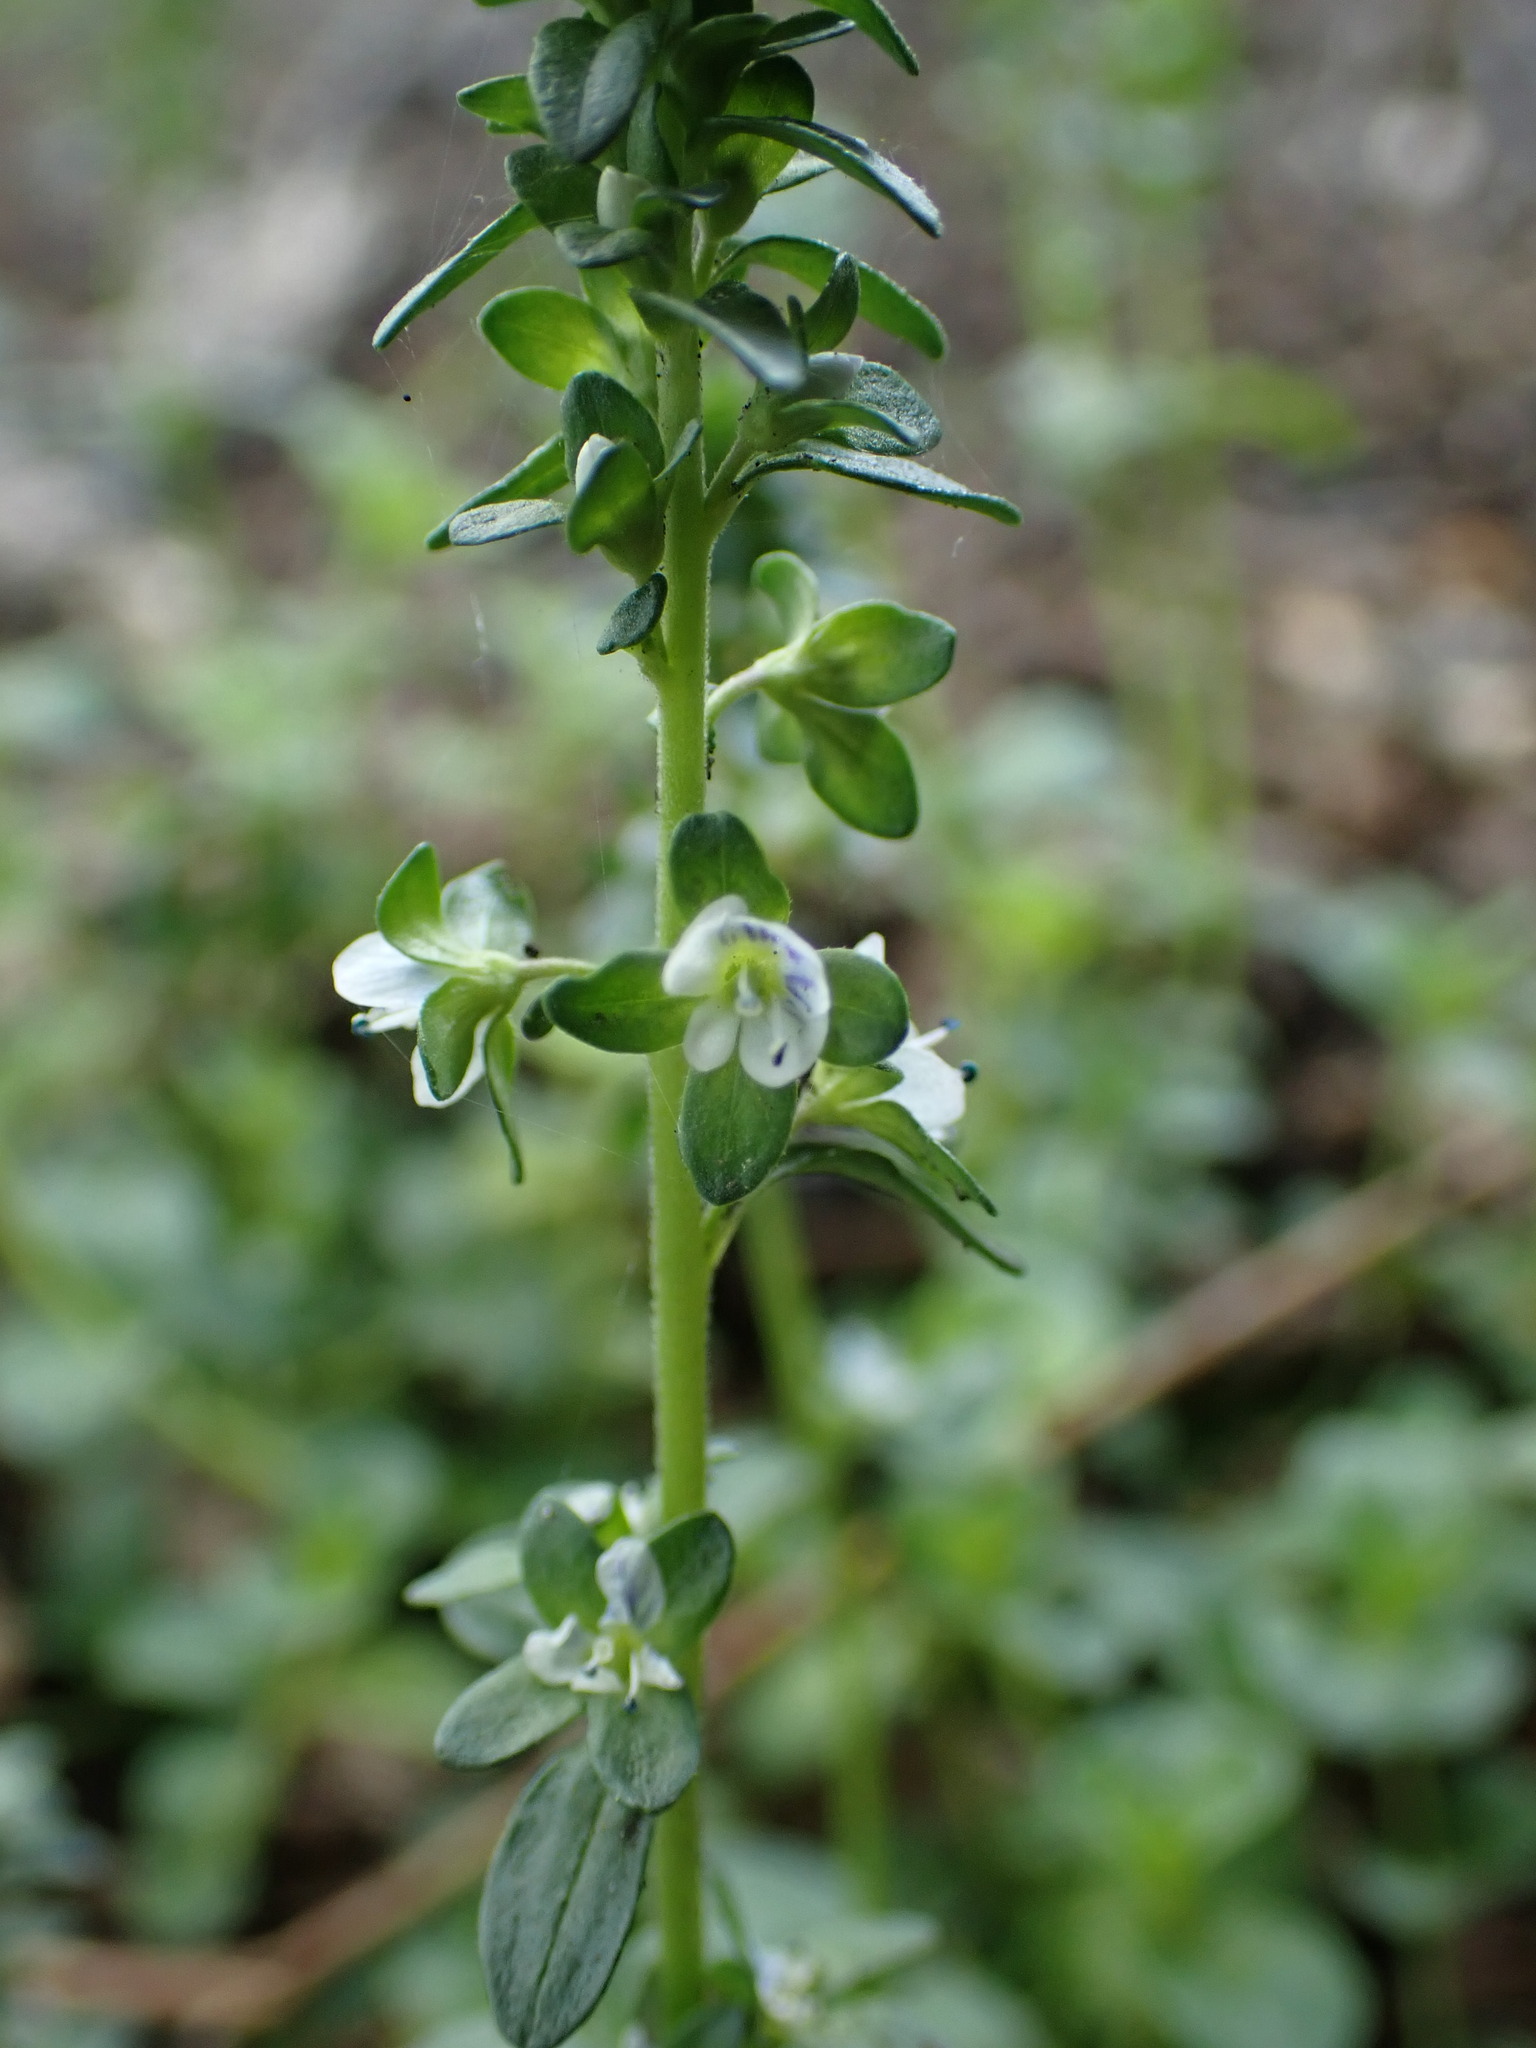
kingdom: Plantae
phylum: Tracheophyta
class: Magnoliopsida
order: Lamiales
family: Plantaginaceae
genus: Veronica
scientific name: Veronica serpyllifolia
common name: Thyme-leaved speedwell
